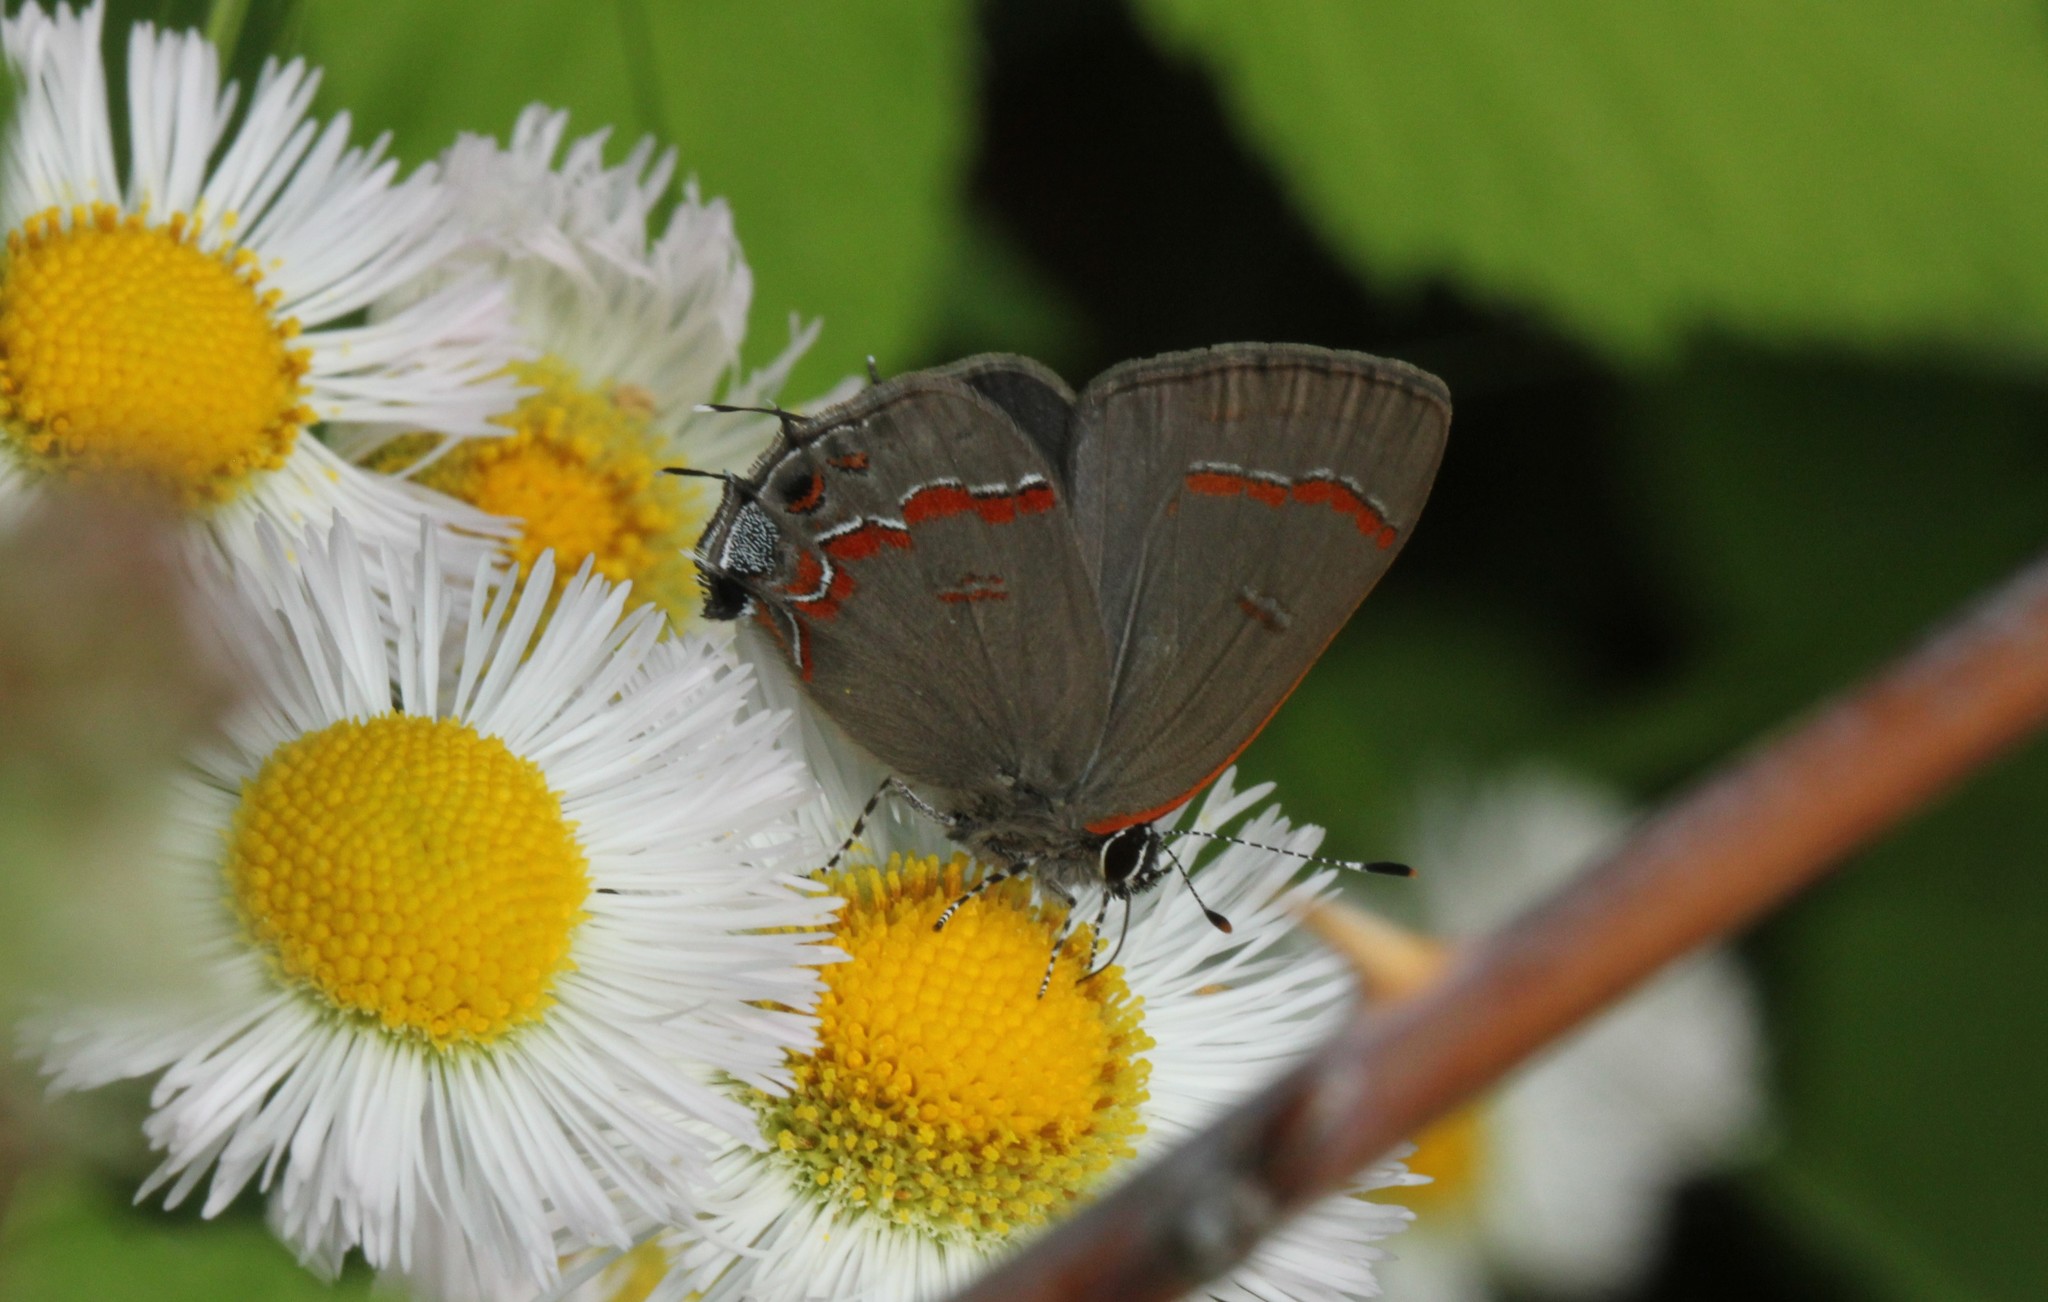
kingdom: Animalia
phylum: Arthropoda
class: Insecta
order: Lepidoptera
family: Lycaenidae
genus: Calycopis
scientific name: Calycopis cecrops
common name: Red-banded hairstreak
